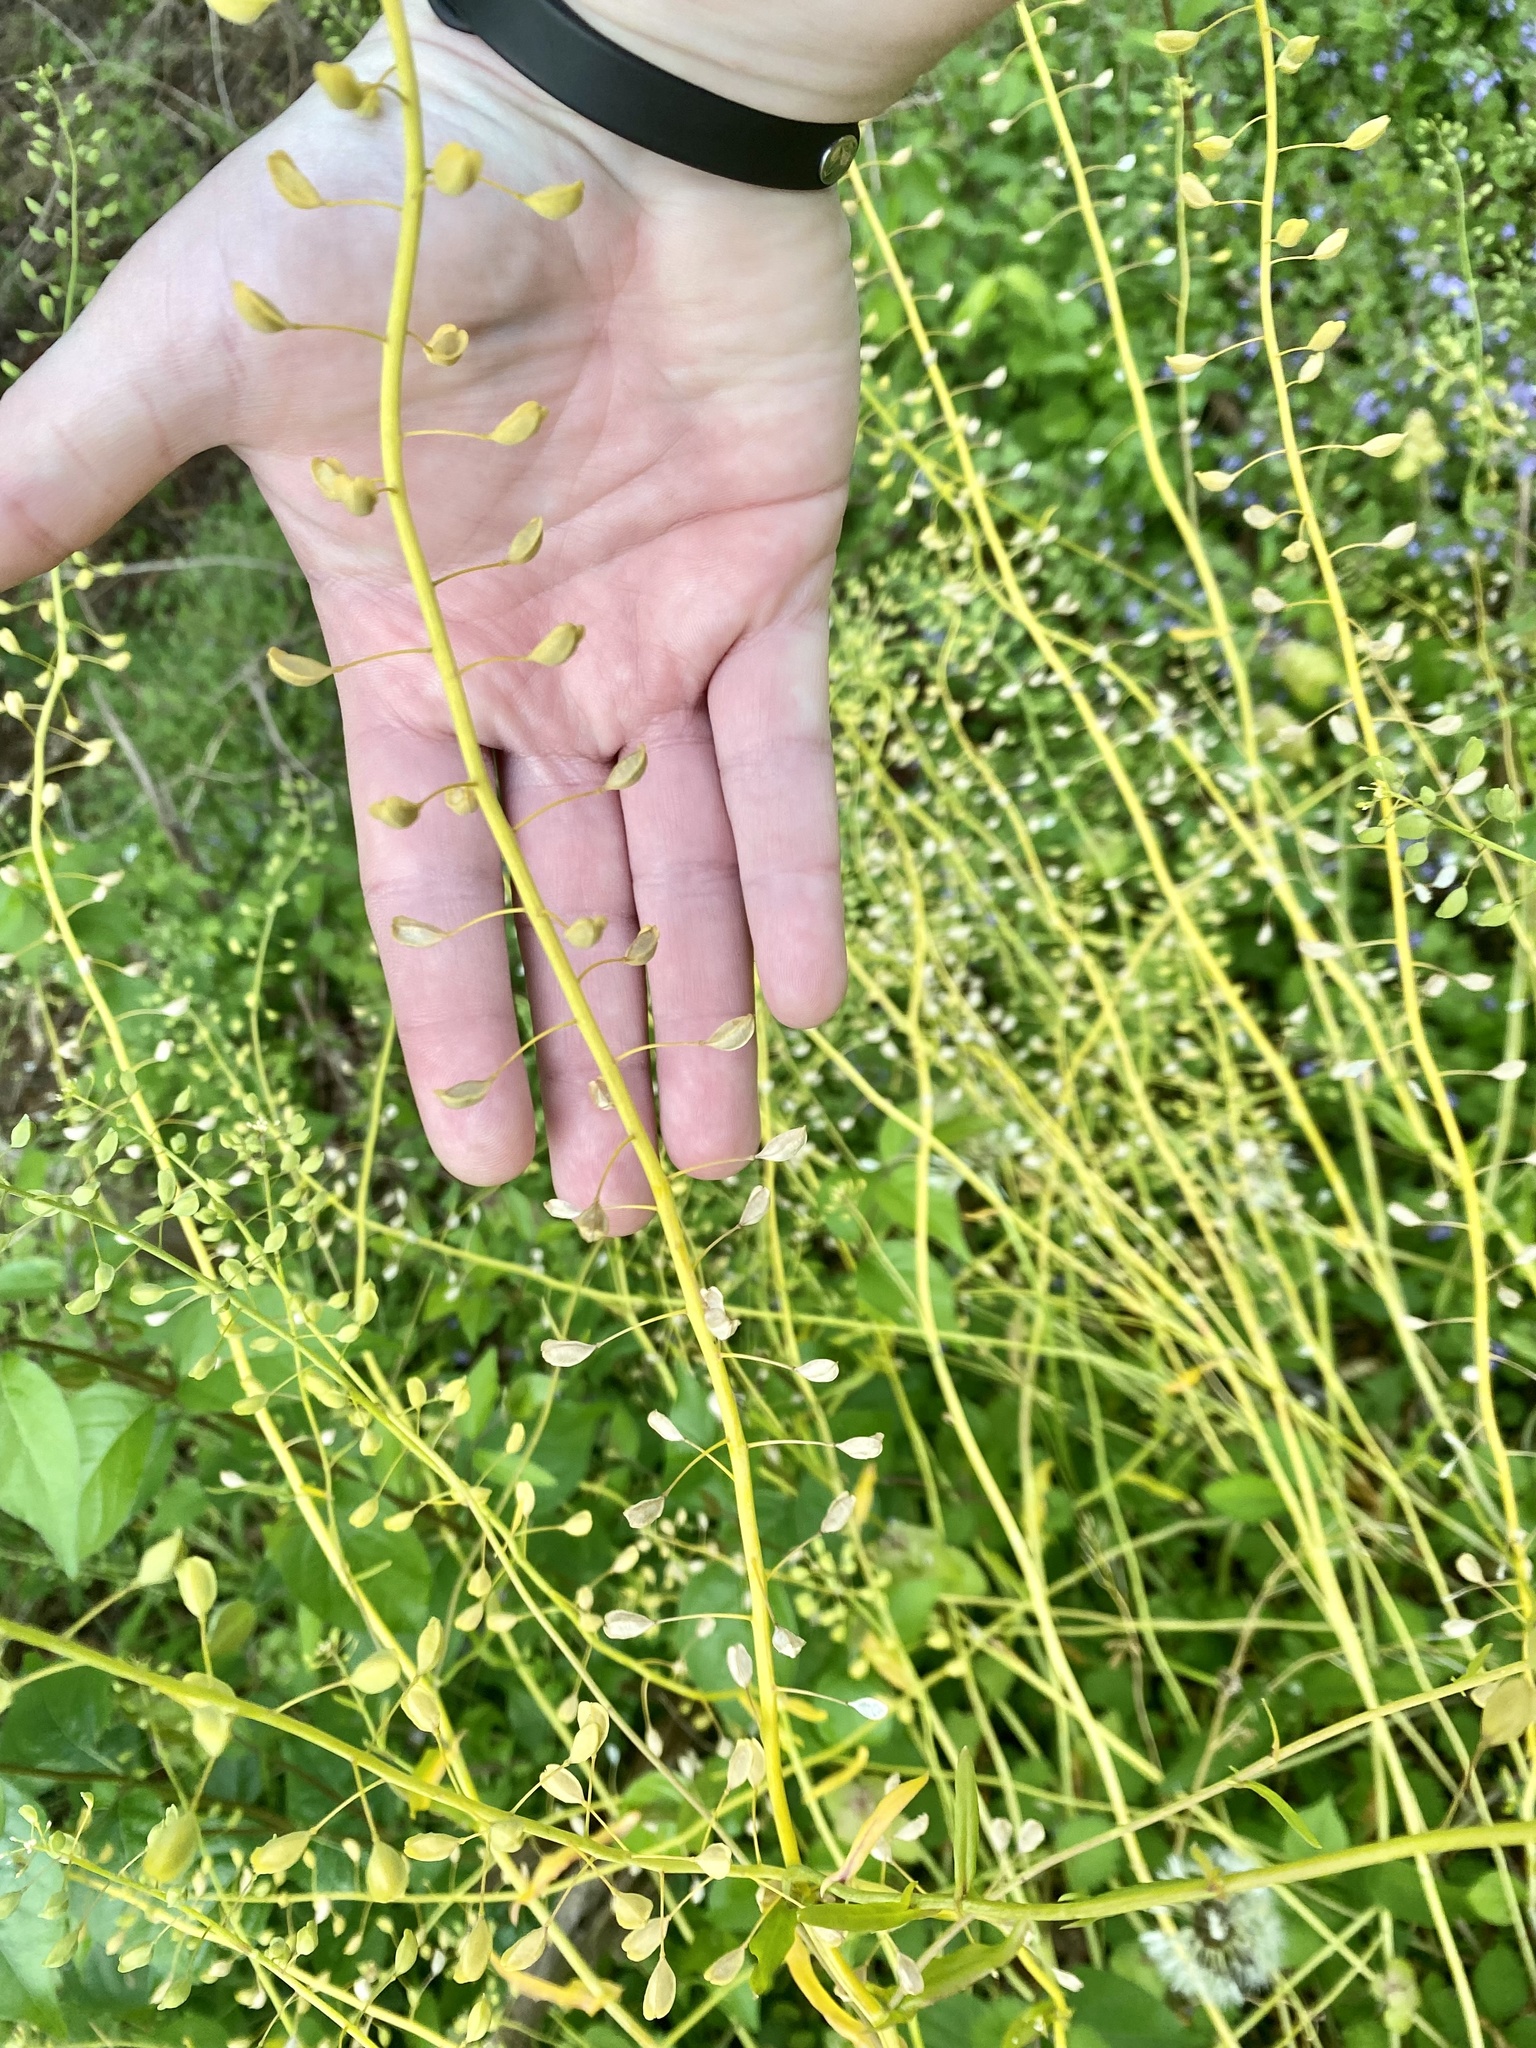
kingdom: Plantae
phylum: Tracheophyta
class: Magnoliopsida
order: Brassicales
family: Brassicaceae
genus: Mummenhoffia
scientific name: Mummenhoffia alliacea
